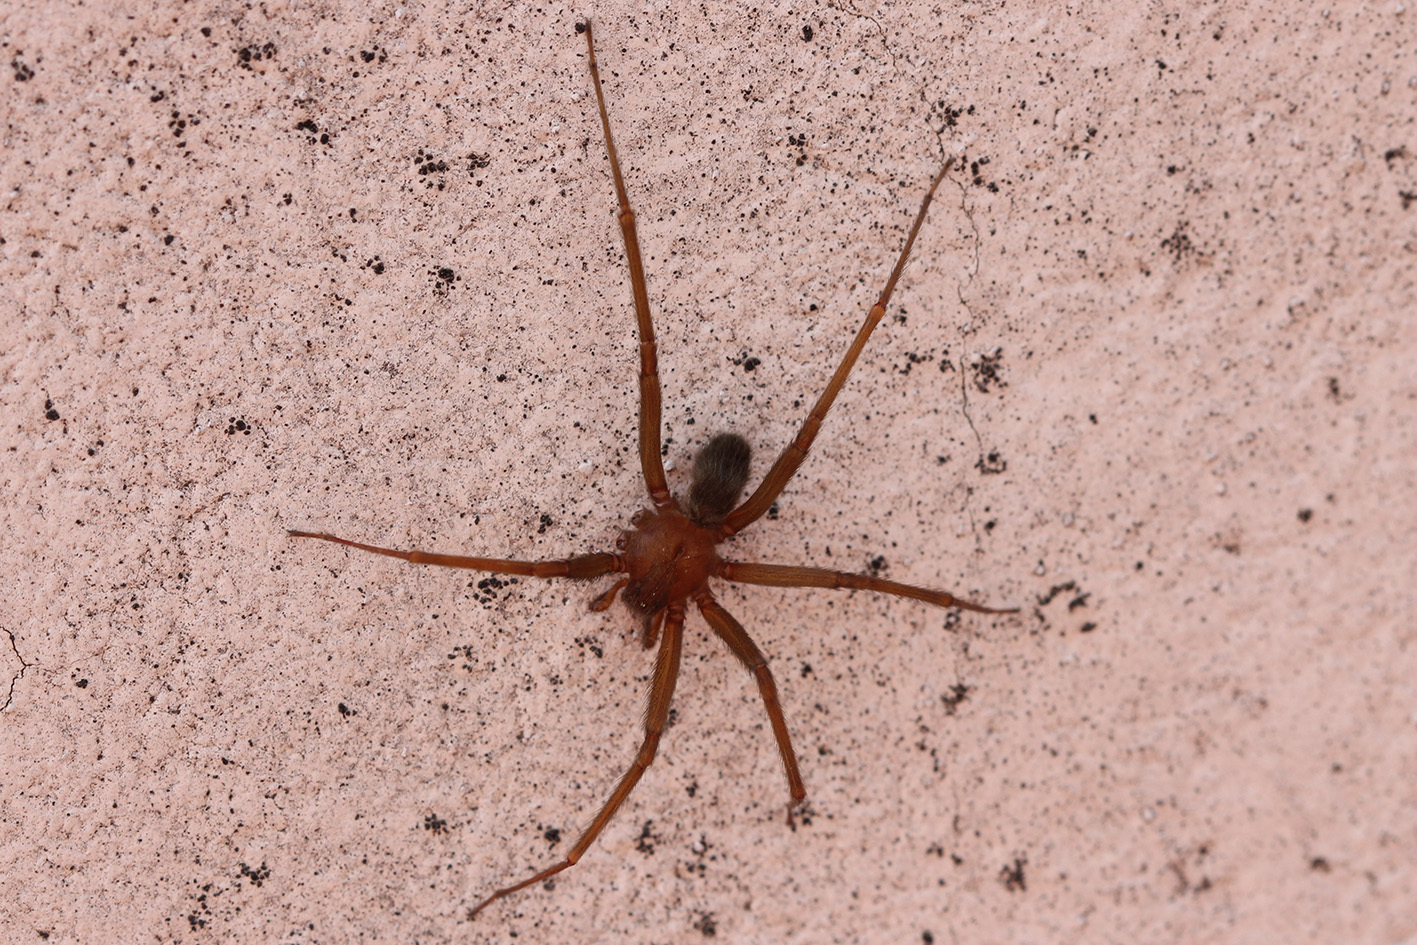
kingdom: Animalia
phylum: Arthropoda
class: Arachnida
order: Araneae
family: Sicariidae
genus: Loxosceles
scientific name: Loxosceles laeta
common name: Chilean recluse spider
